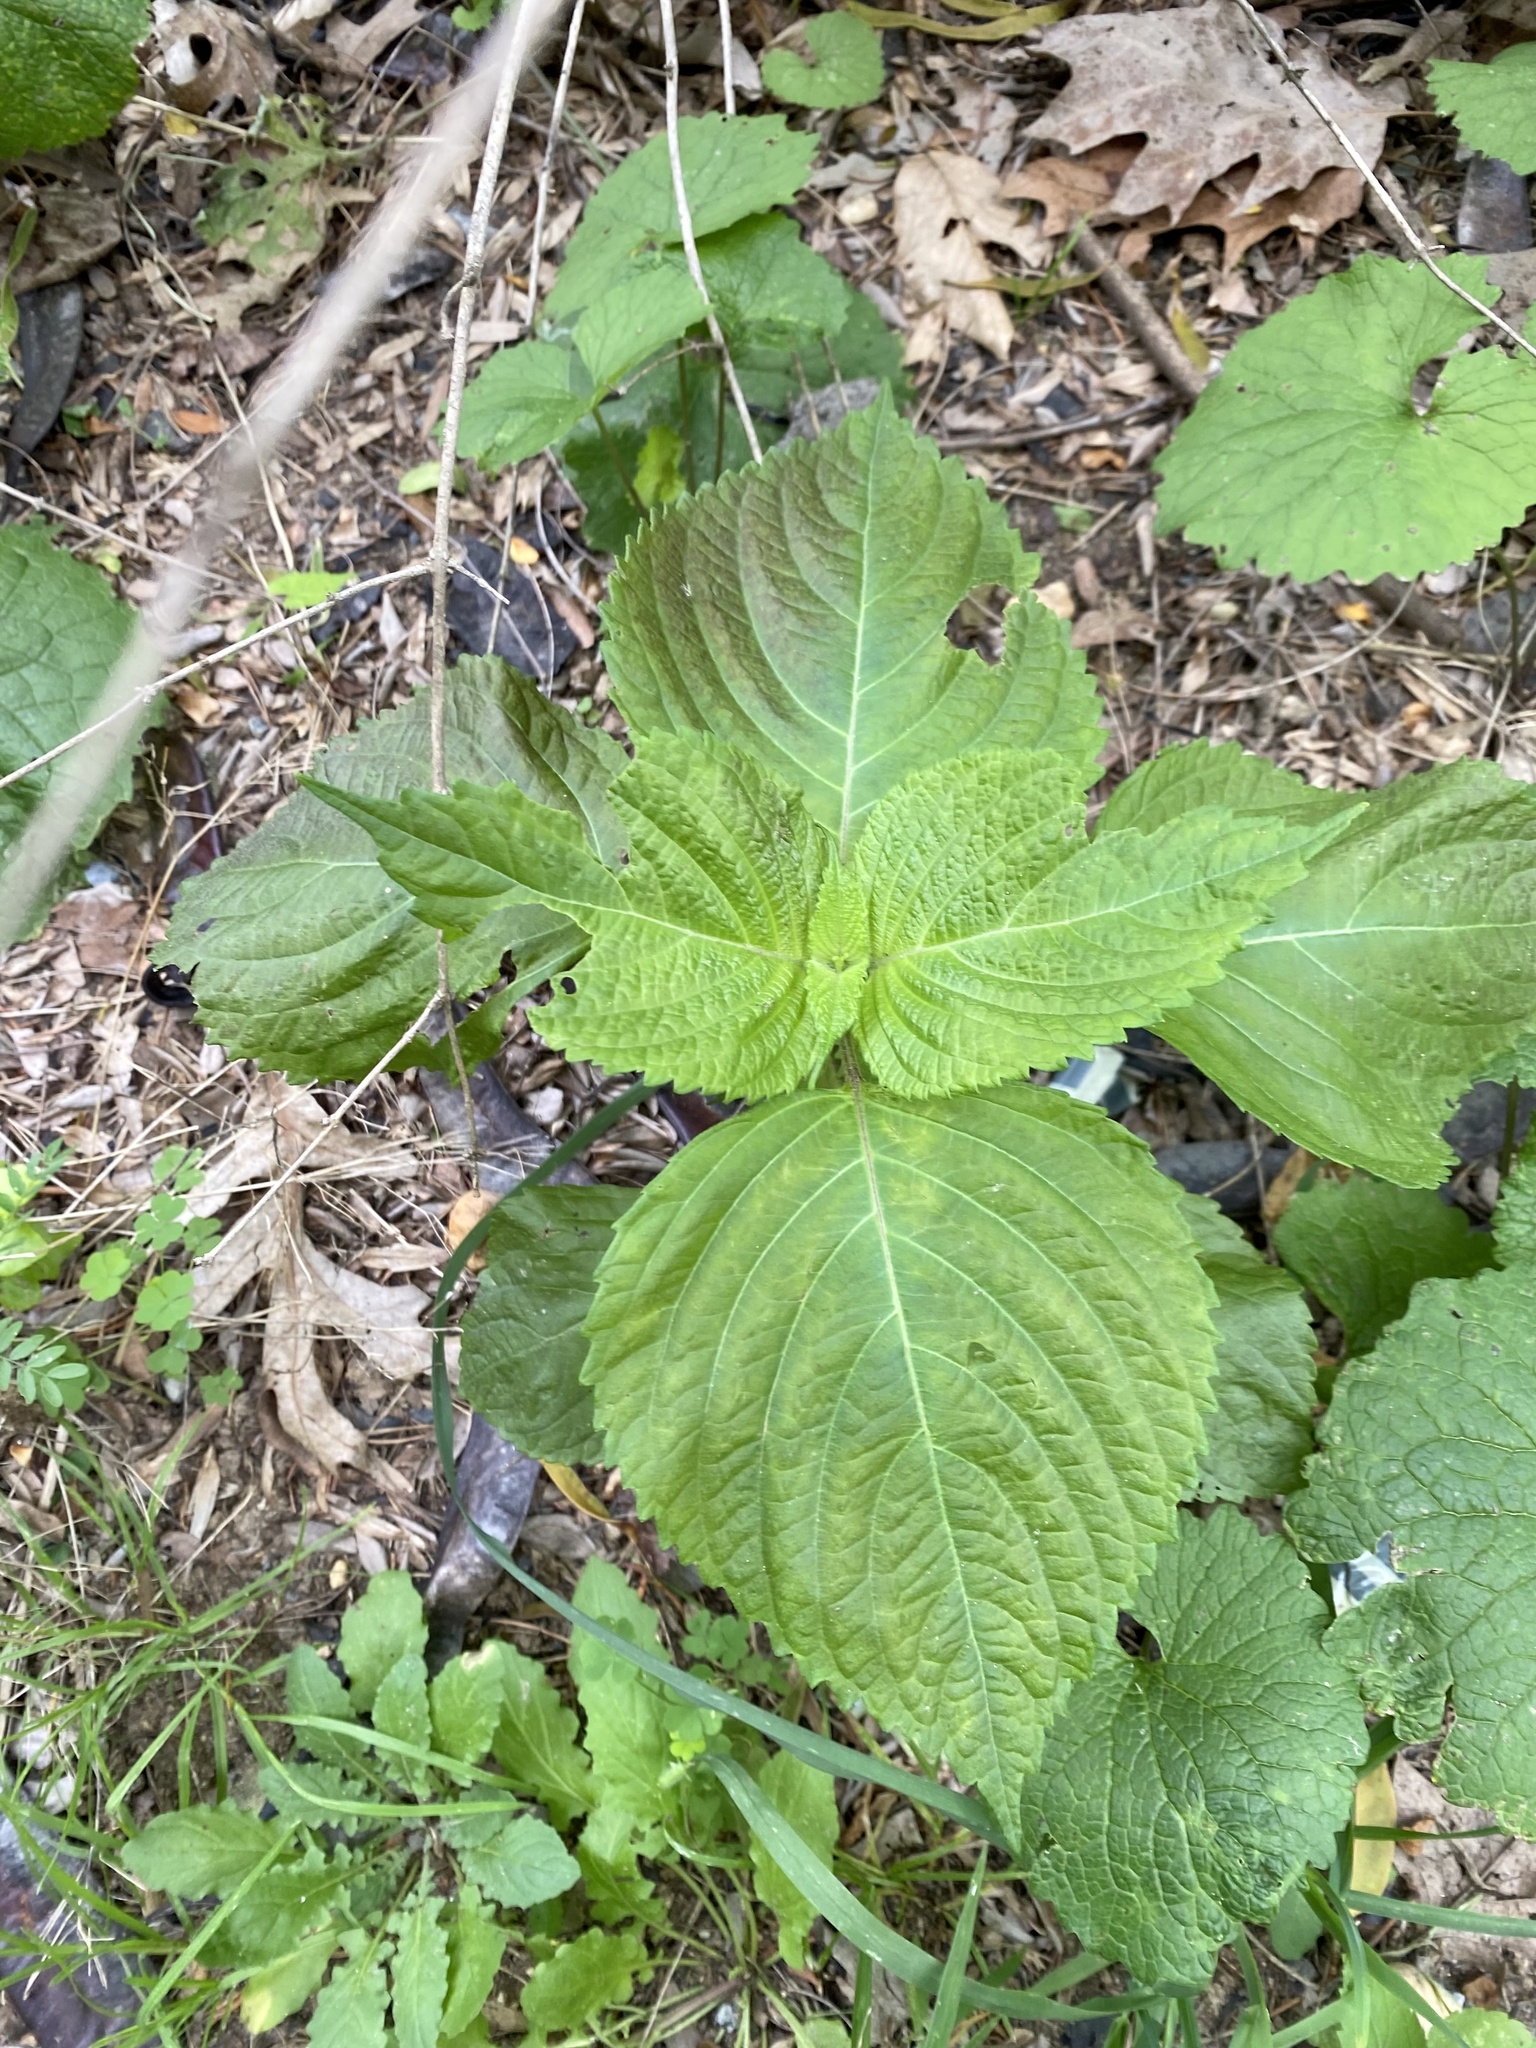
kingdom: Plantae
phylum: Tracheophyta
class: Magnoliopsida
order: Lamiales
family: Lamiaceae
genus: Perilla
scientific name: Perilla frutescens
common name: Perilla
